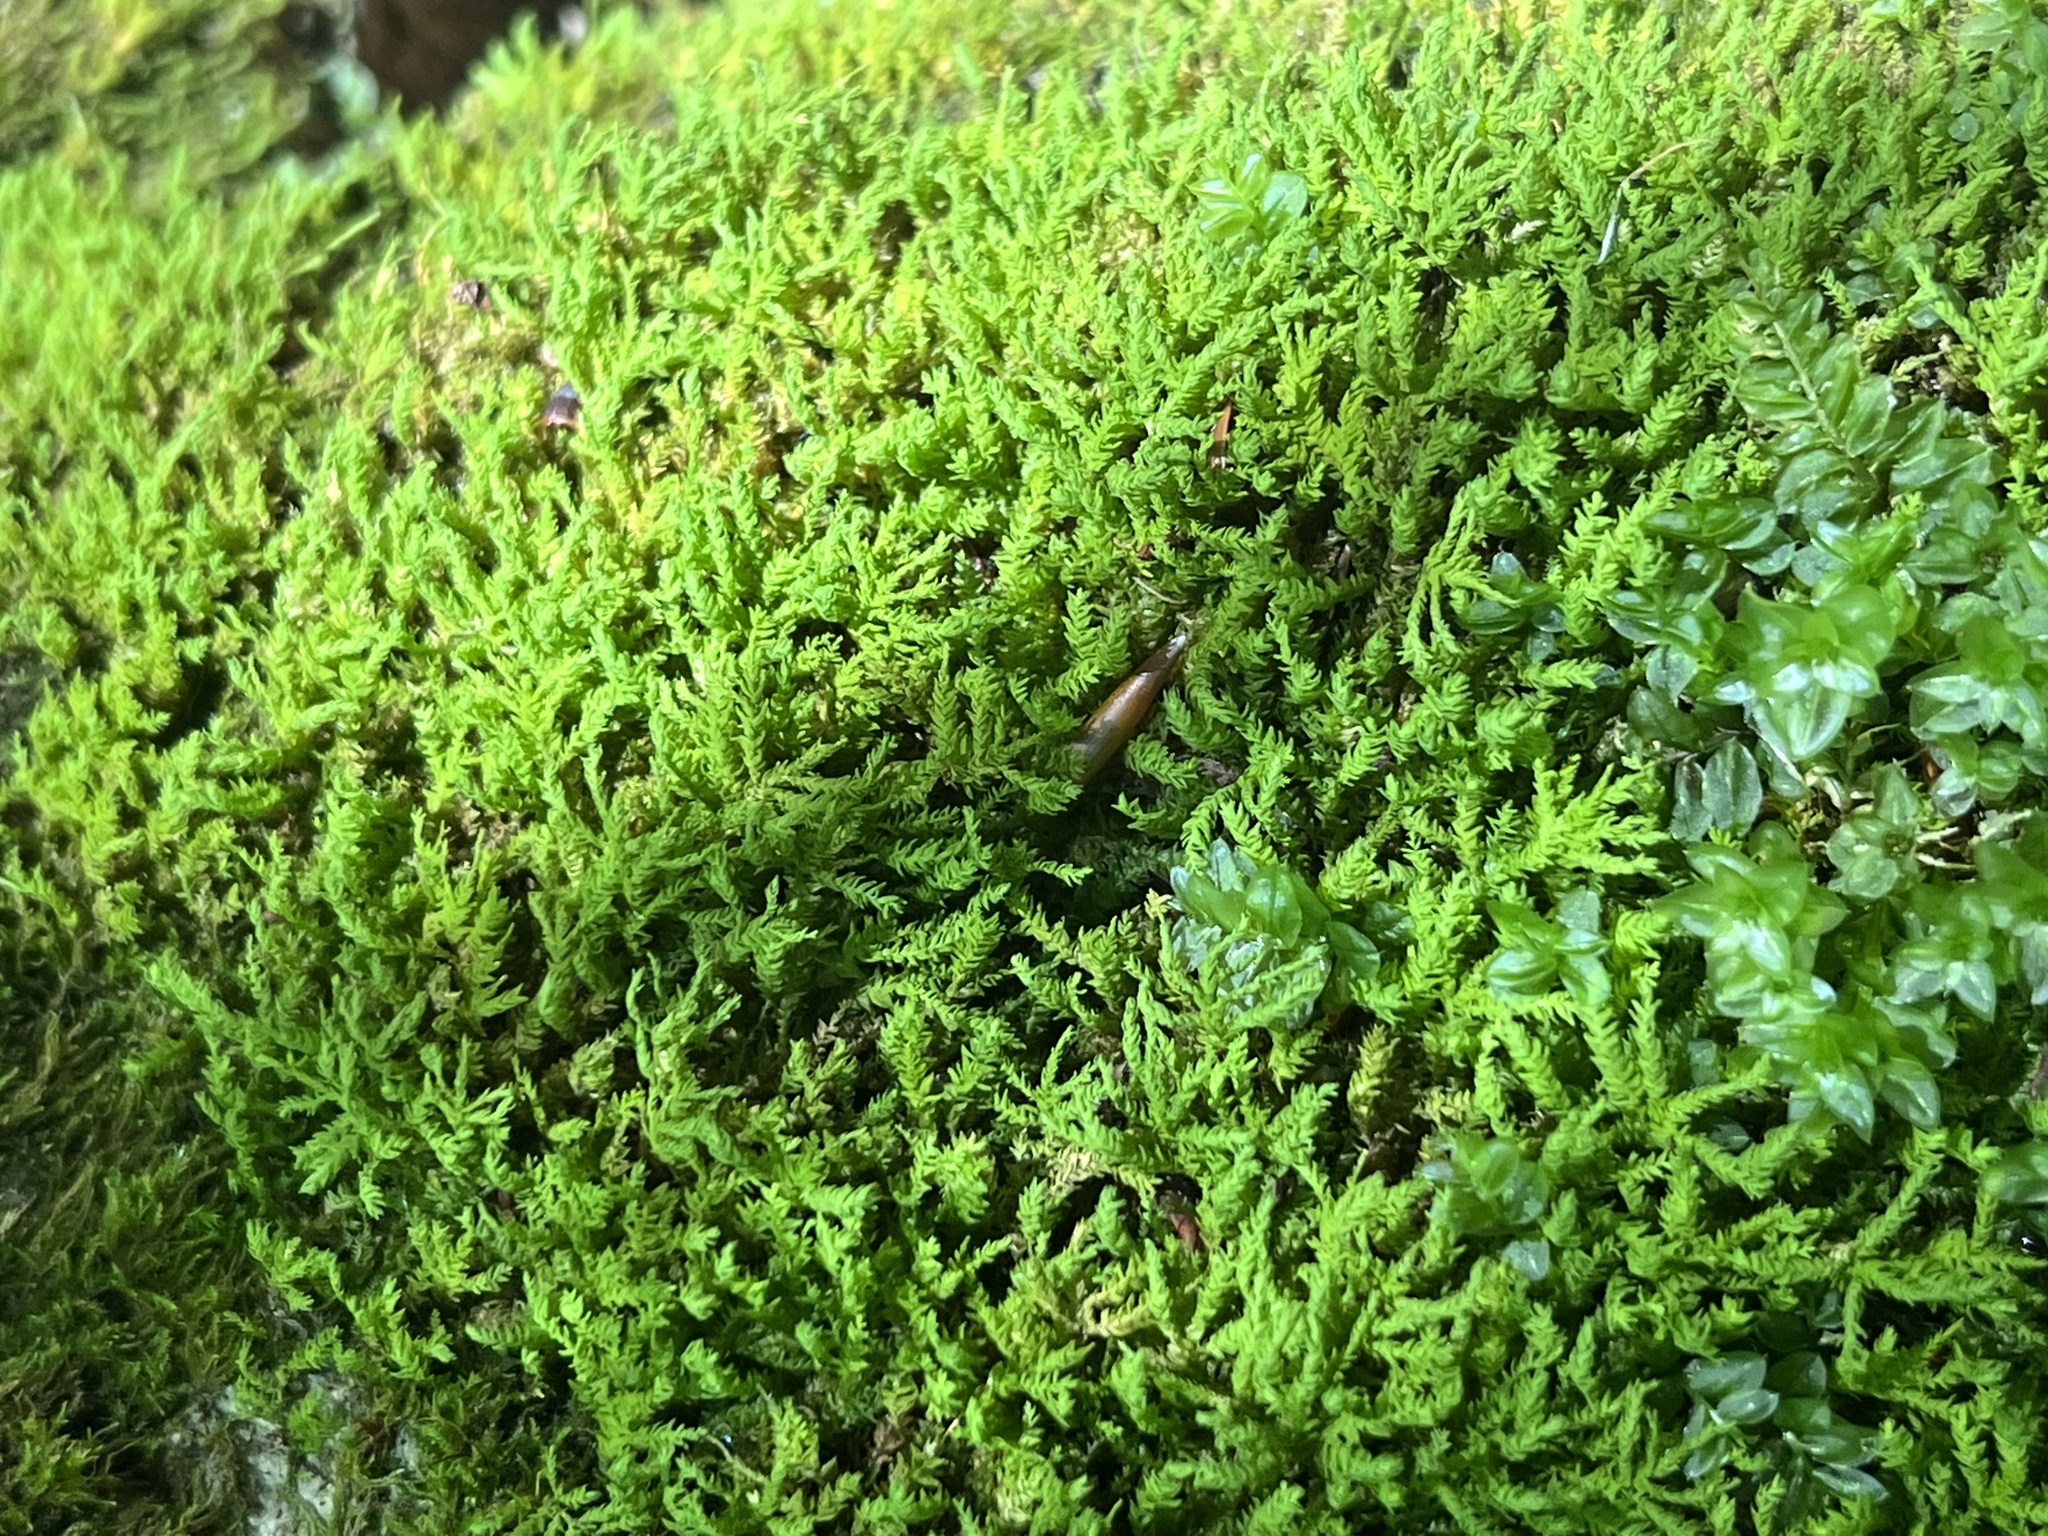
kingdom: Plantae
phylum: Bryophyta
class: Bryopsida
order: Hypnales
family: Neckeraceae
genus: Pseudanomodon
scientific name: Pseudanomodon attenuatus
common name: Tree-skirt moss
